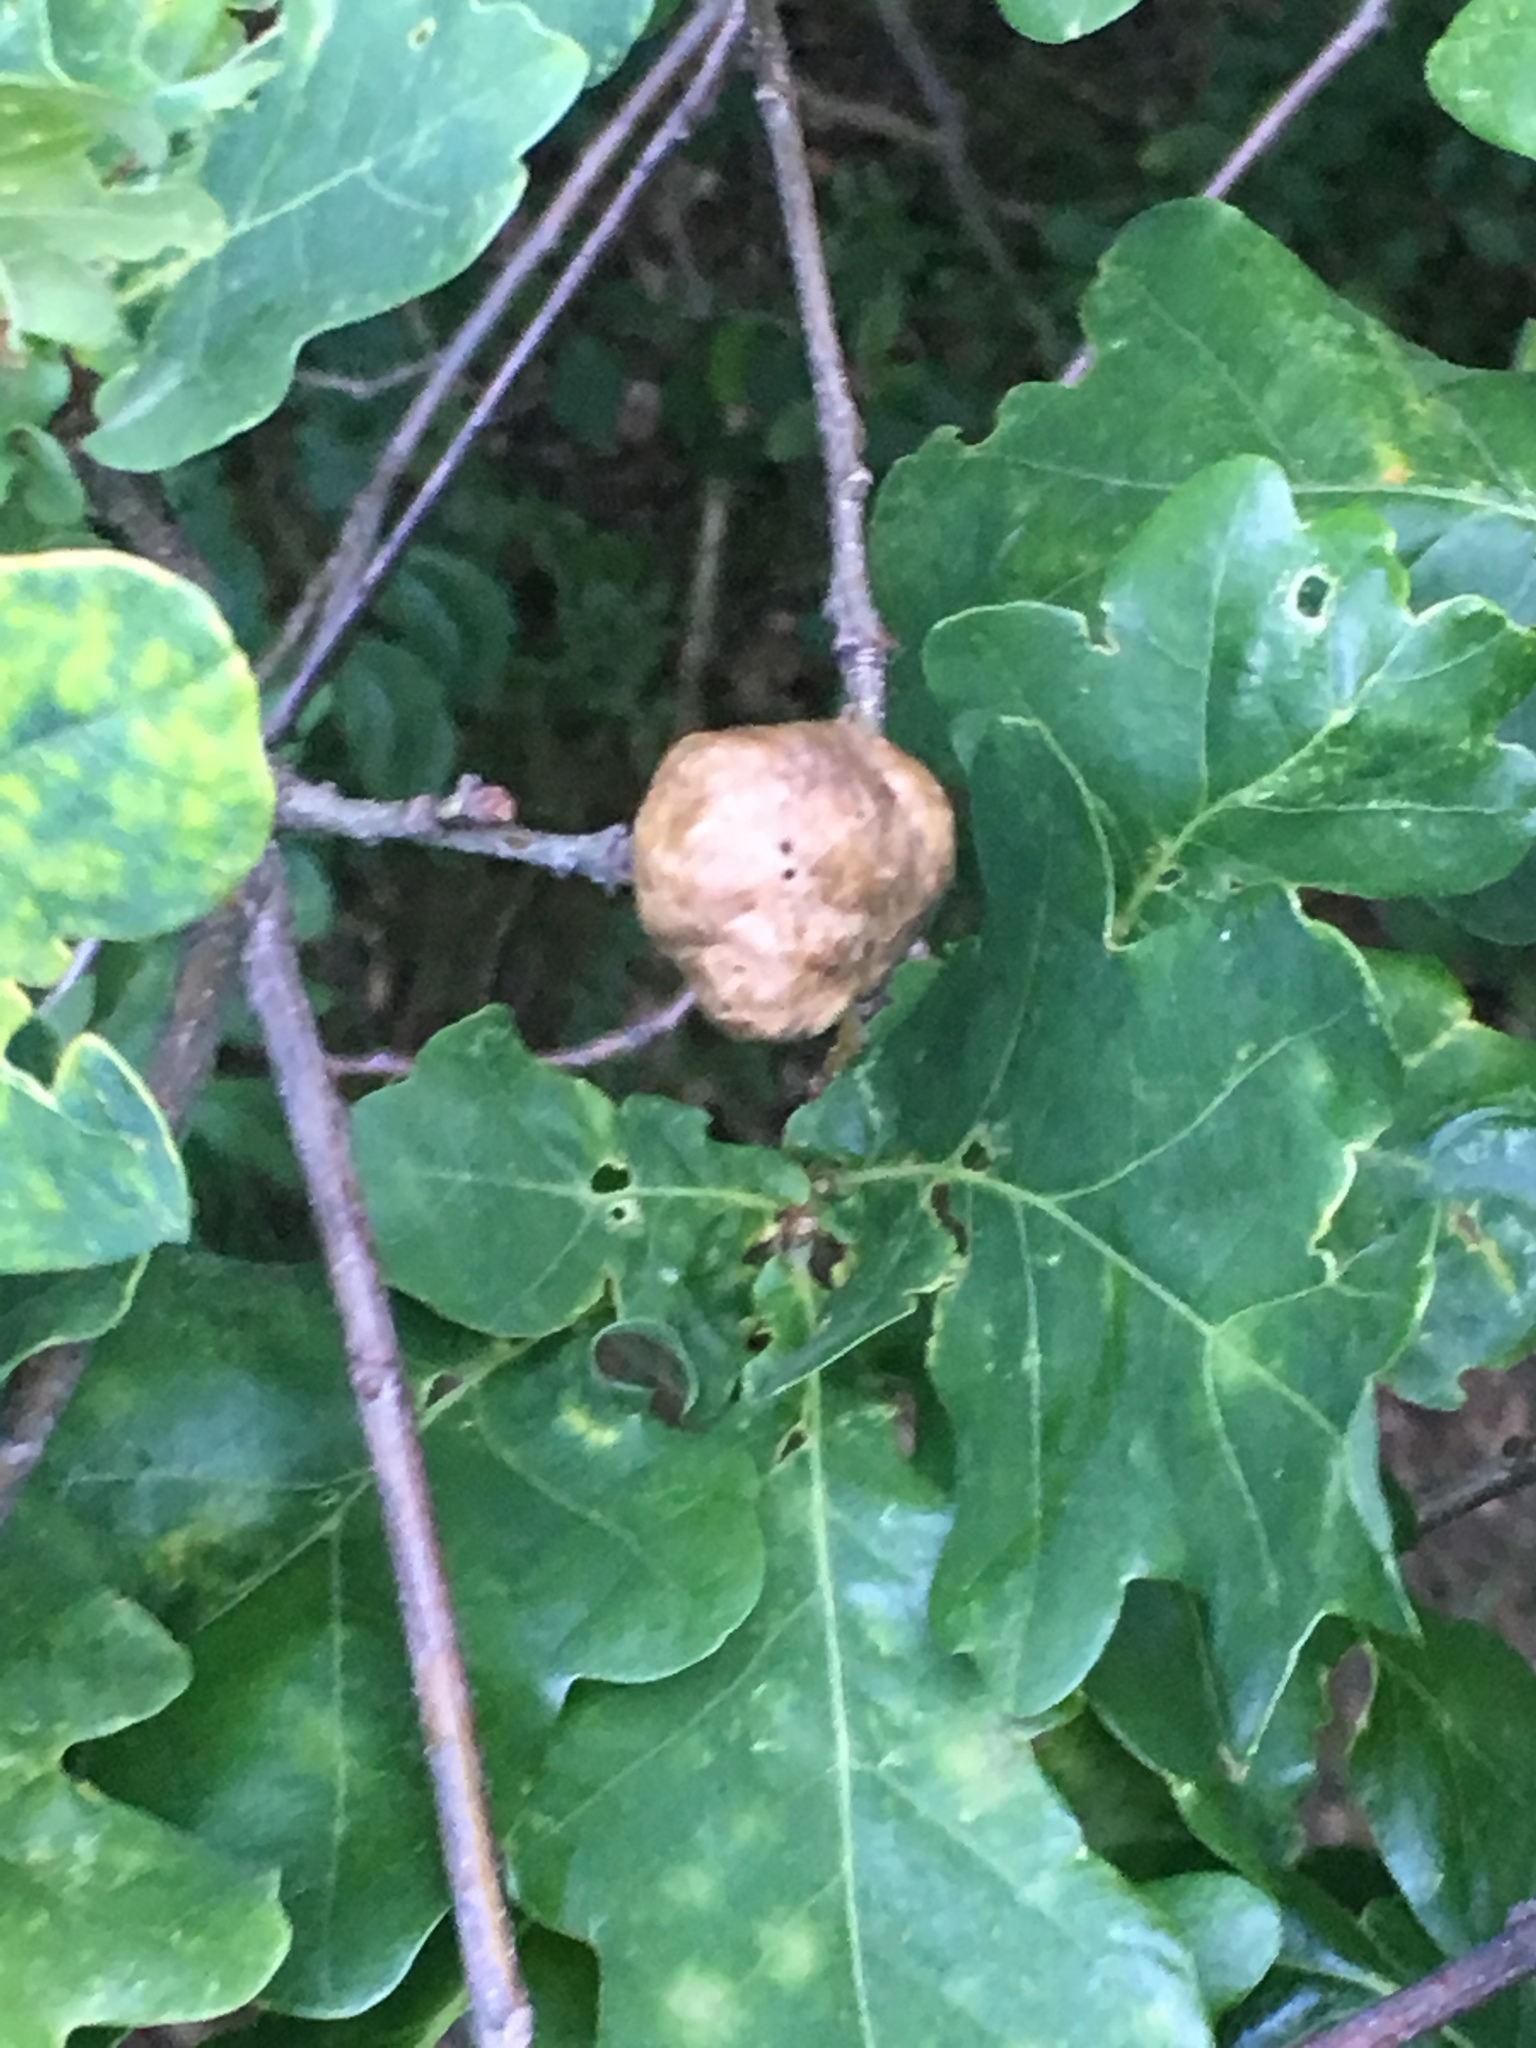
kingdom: Animalia
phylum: Arthropoda
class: Insecta
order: Hymenoptera
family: Cynipidae
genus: Biorhiza
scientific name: Biorhiza pallida
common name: Oak apple
